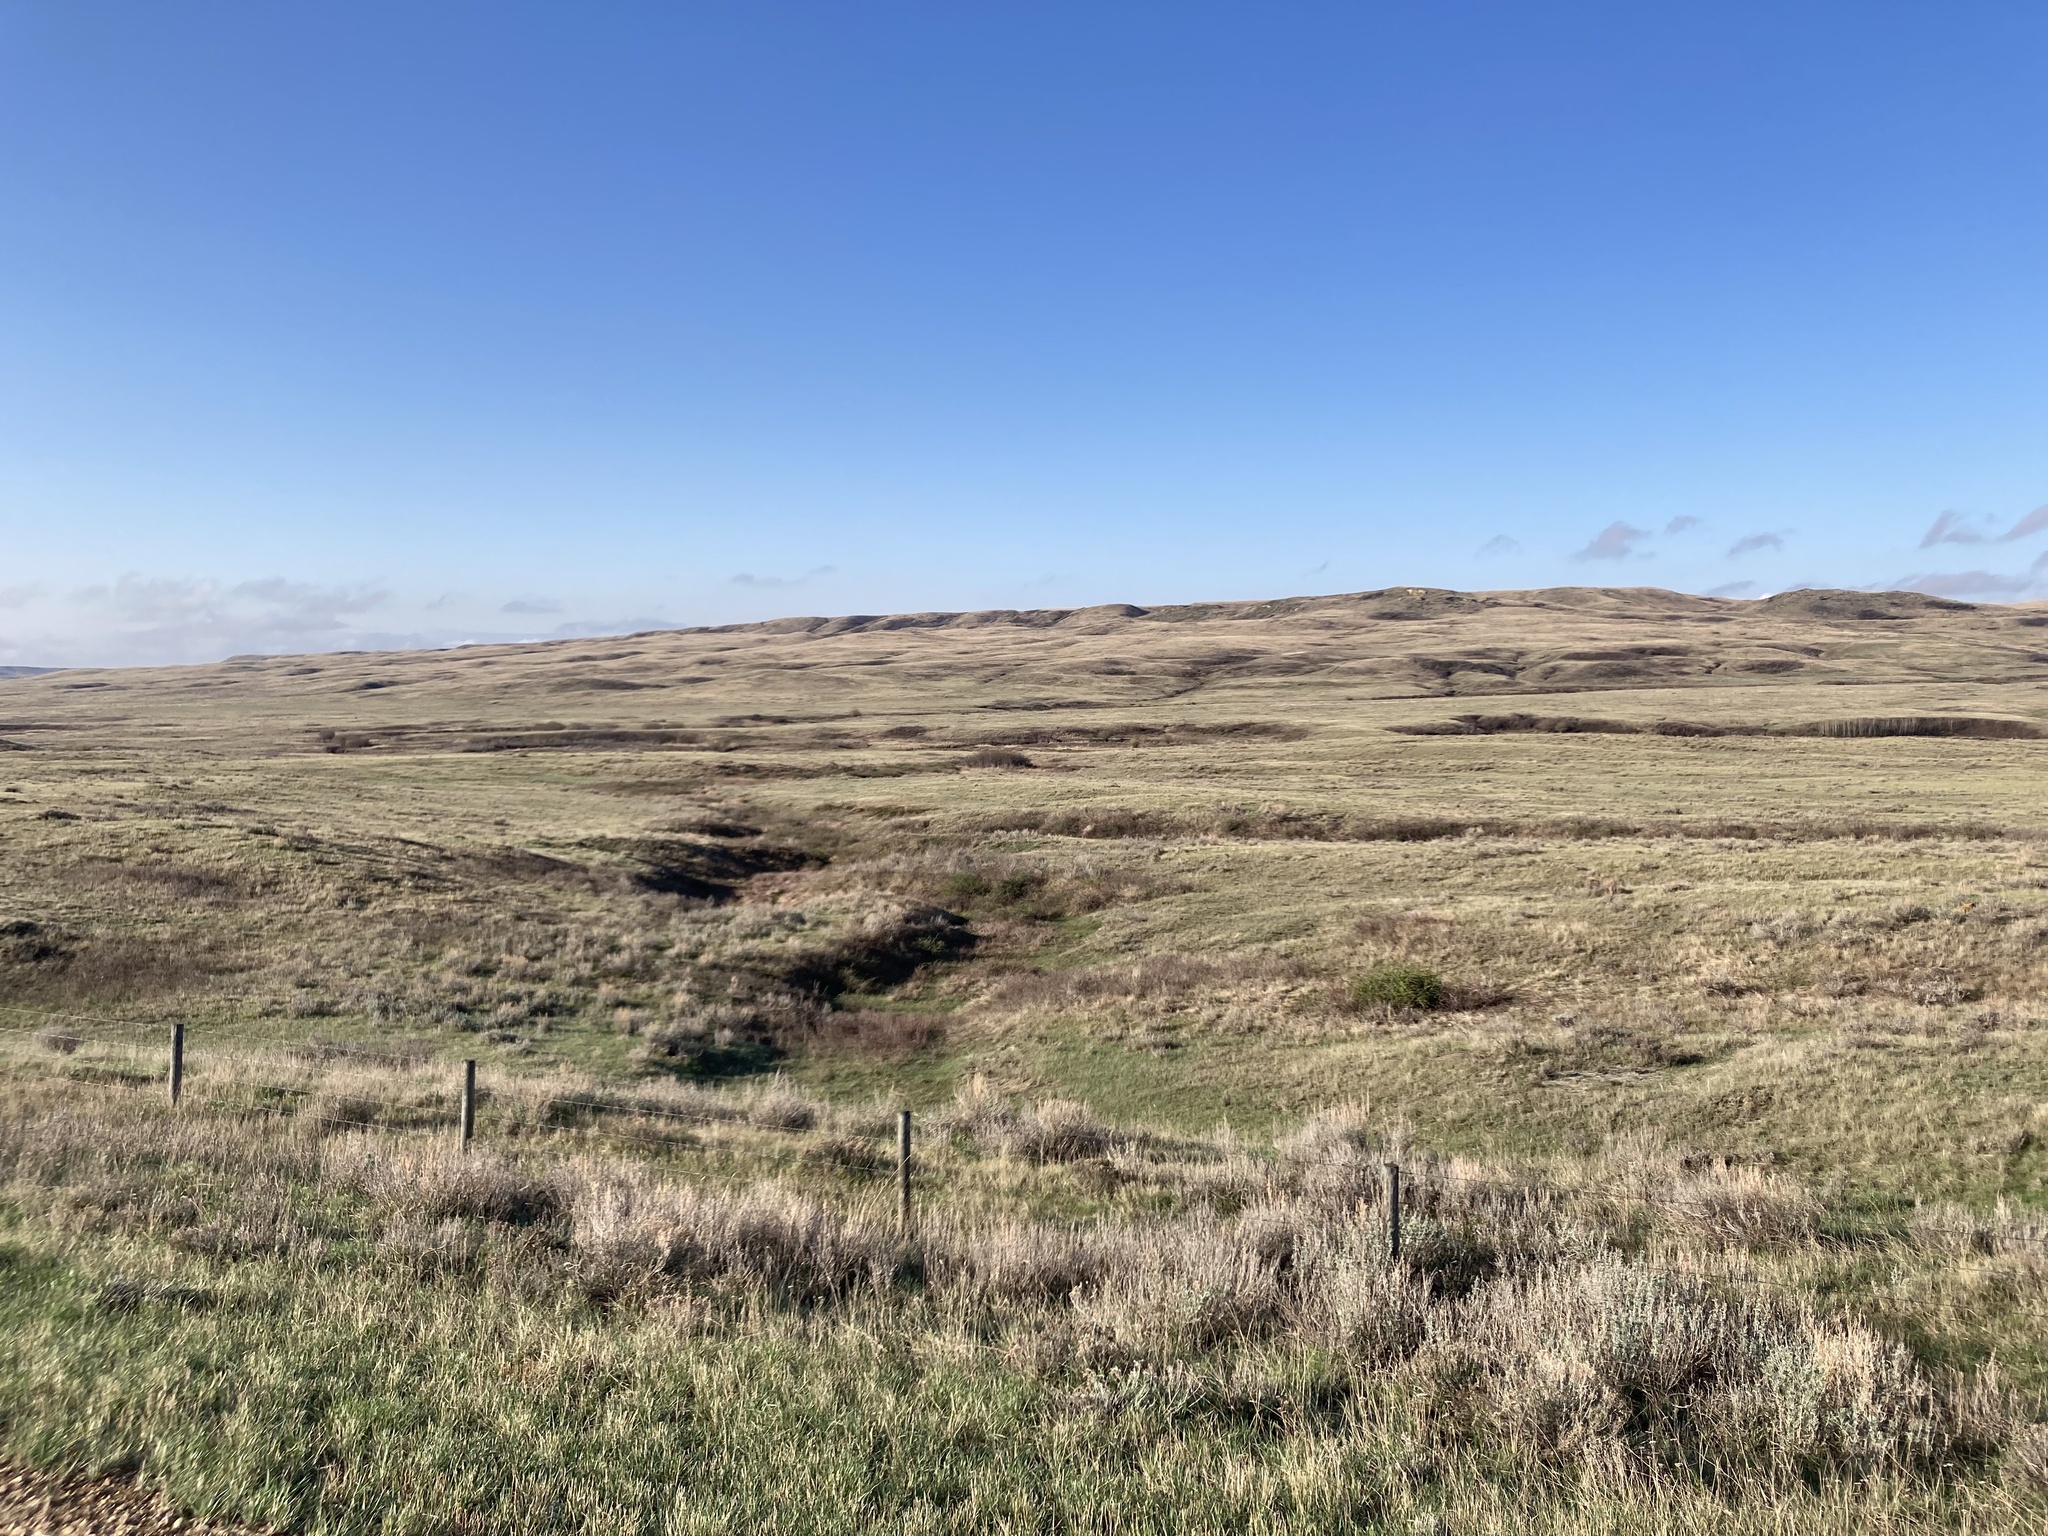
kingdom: Plantae
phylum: Tracheophyta
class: Magnoliopsida
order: Asterales
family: Asteraceae
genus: Artemisia
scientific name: Artemisia cana
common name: Silver sagebrush
